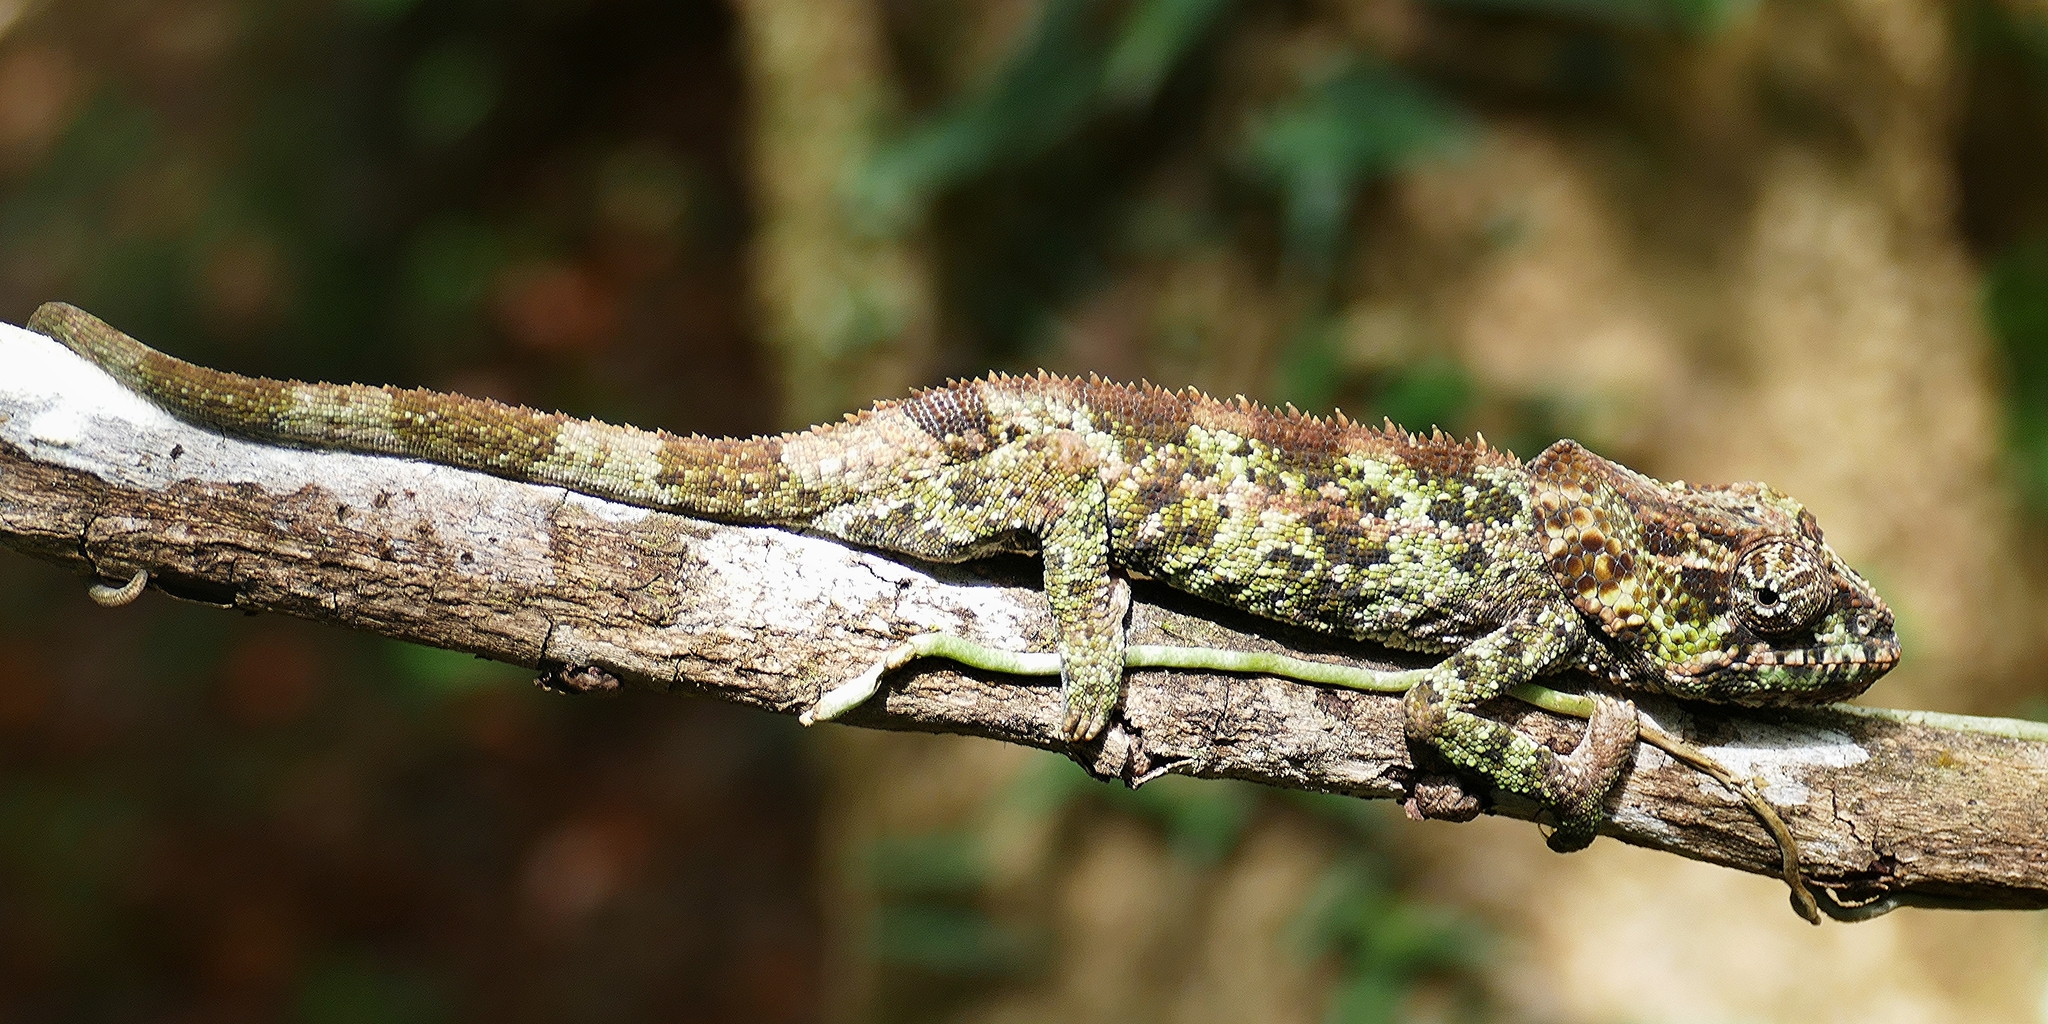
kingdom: Animalia
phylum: Chordata
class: Squamata
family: Chamaeleonidae
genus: Calumma
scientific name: Calumma brevicorne
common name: Short-horned chameleon
